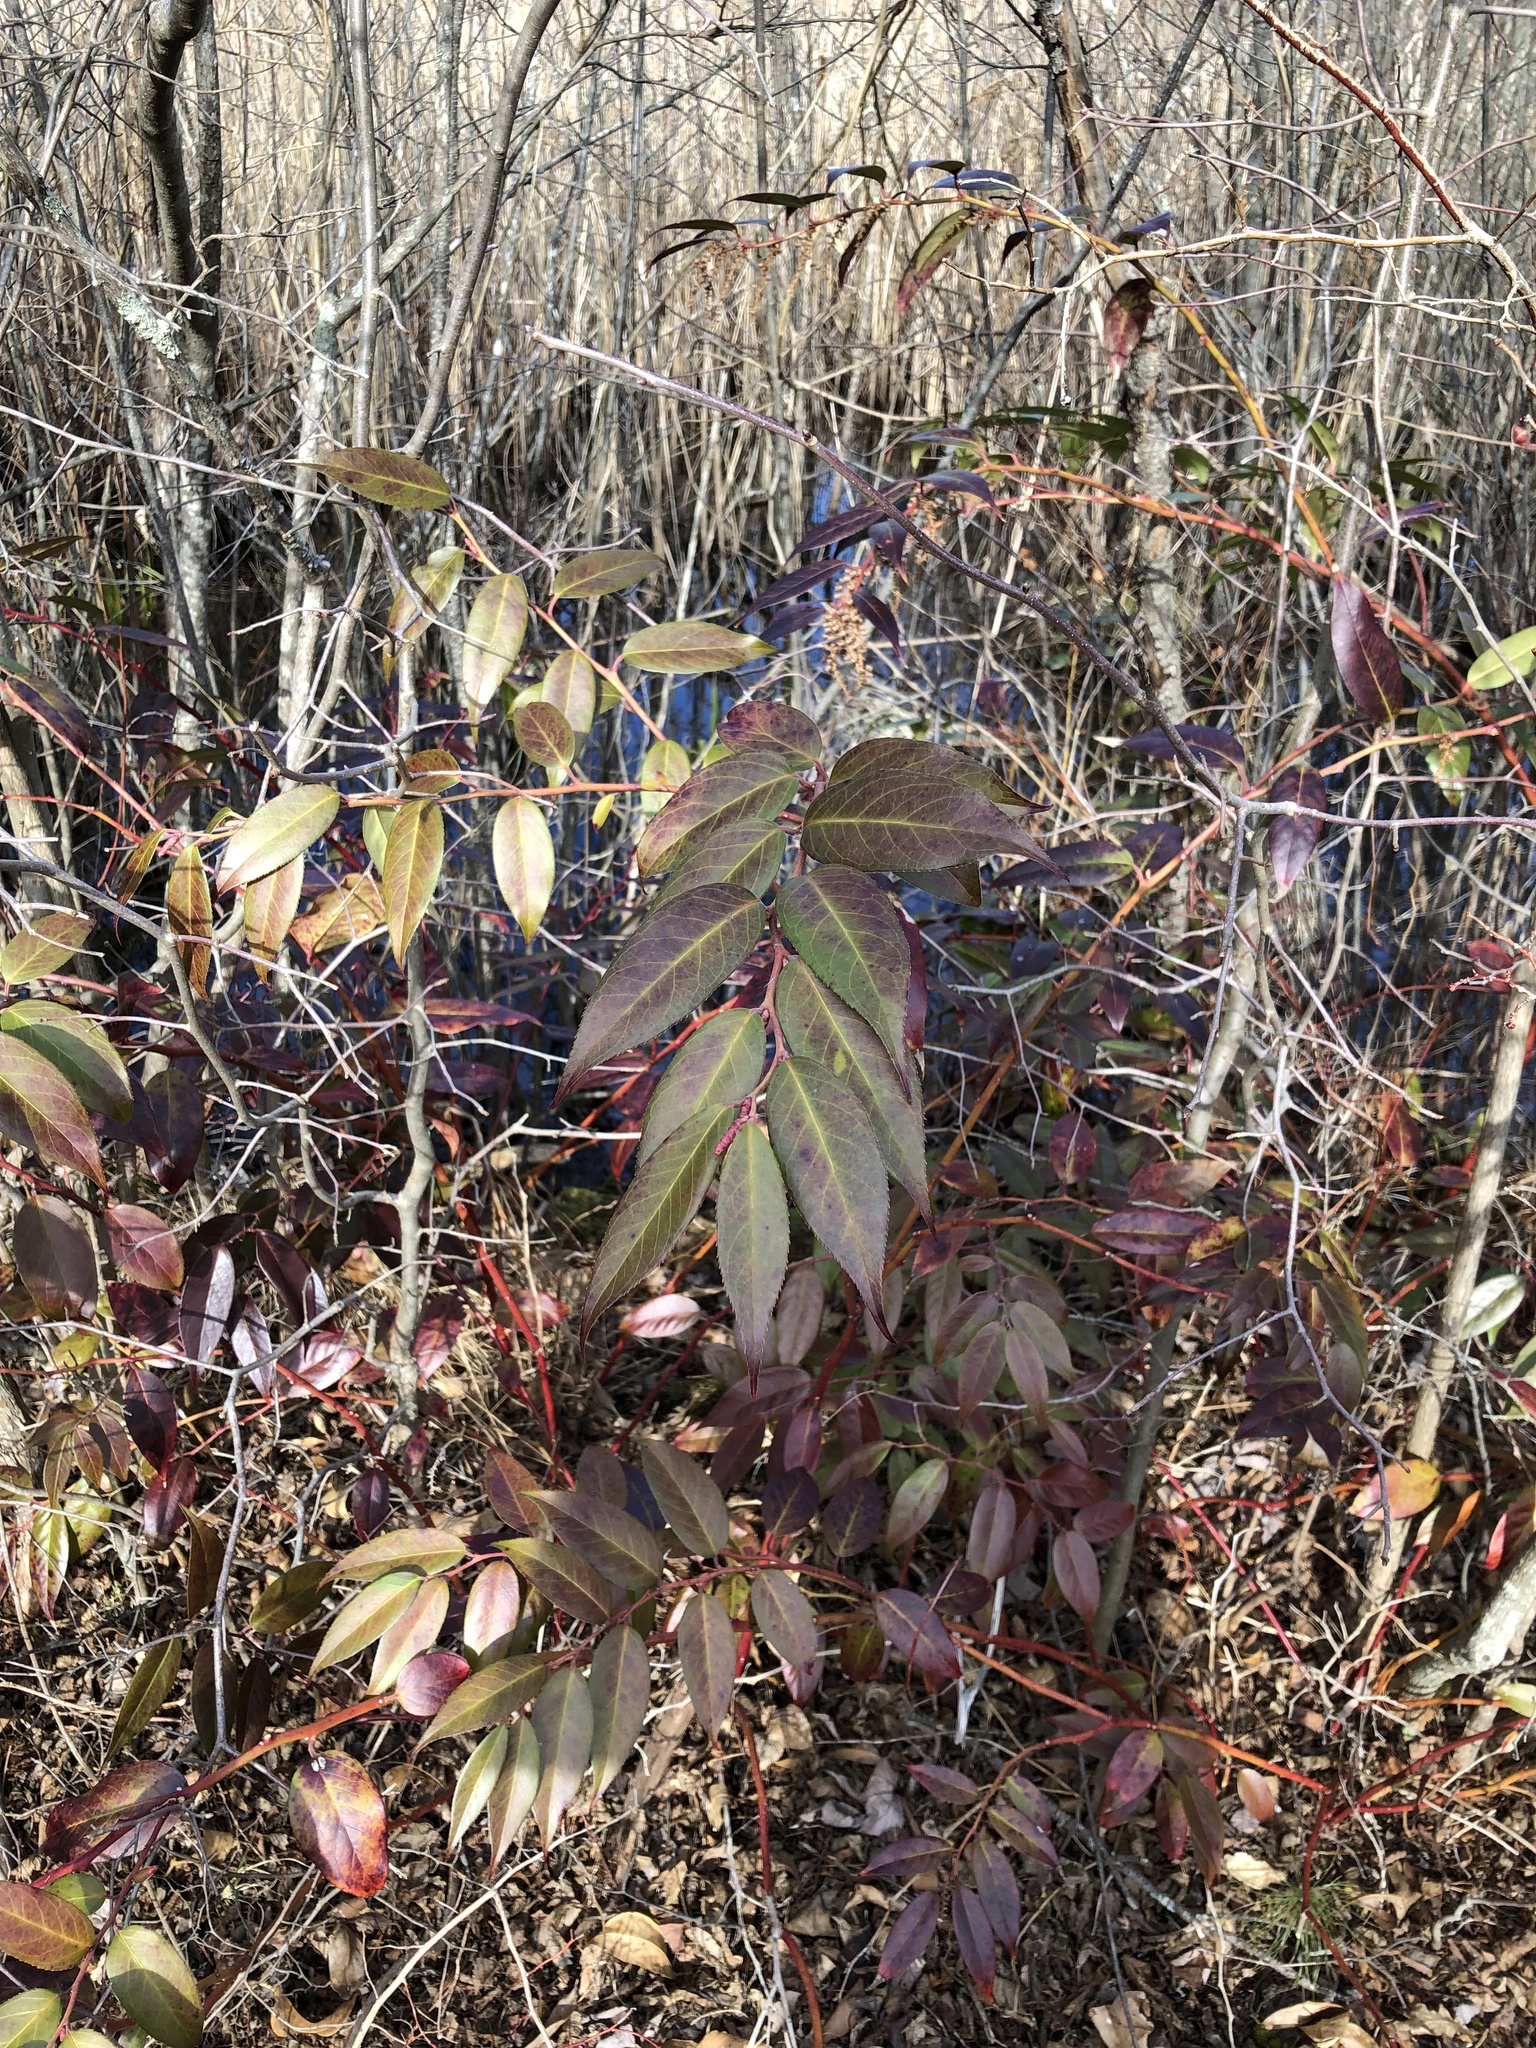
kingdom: Plantae
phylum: Tracheophyta
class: Magnoliopsida
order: Ericales
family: Ericaceae
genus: Leucothoe
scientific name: Leucothoe fontanesiana
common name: Fetterbush
